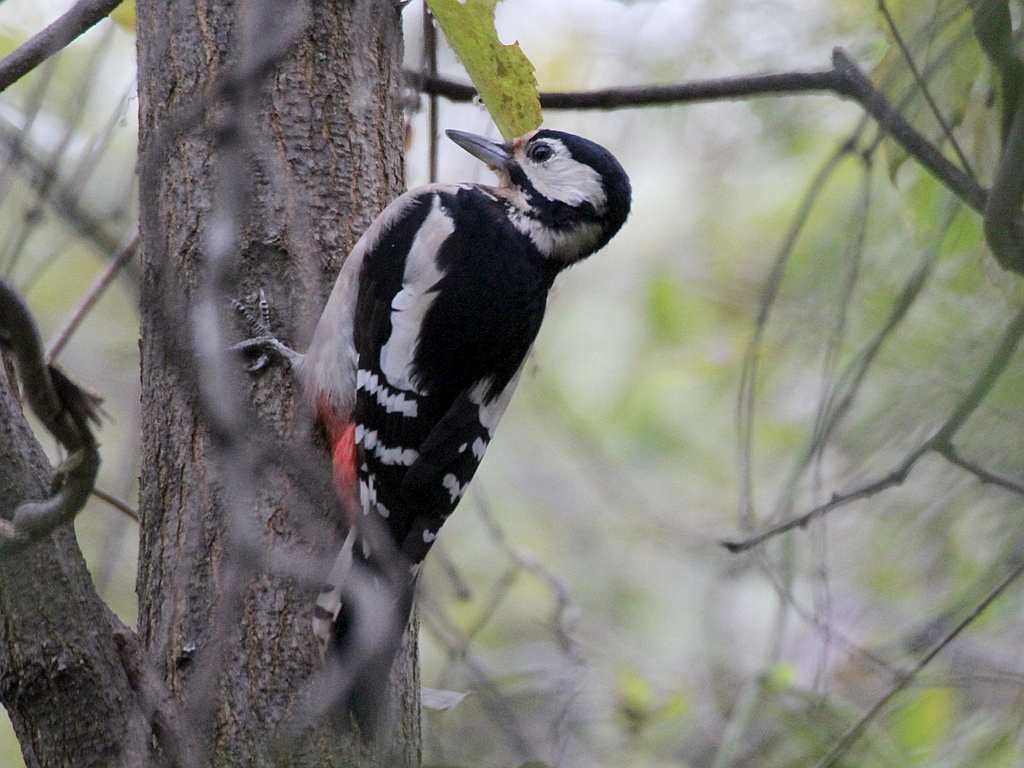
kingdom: Animalia
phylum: Chordata
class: Aves
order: Piciformes
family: Picidae
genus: Dendrocopos
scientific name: Dendrocopos major
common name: Great spotted woodpecker
